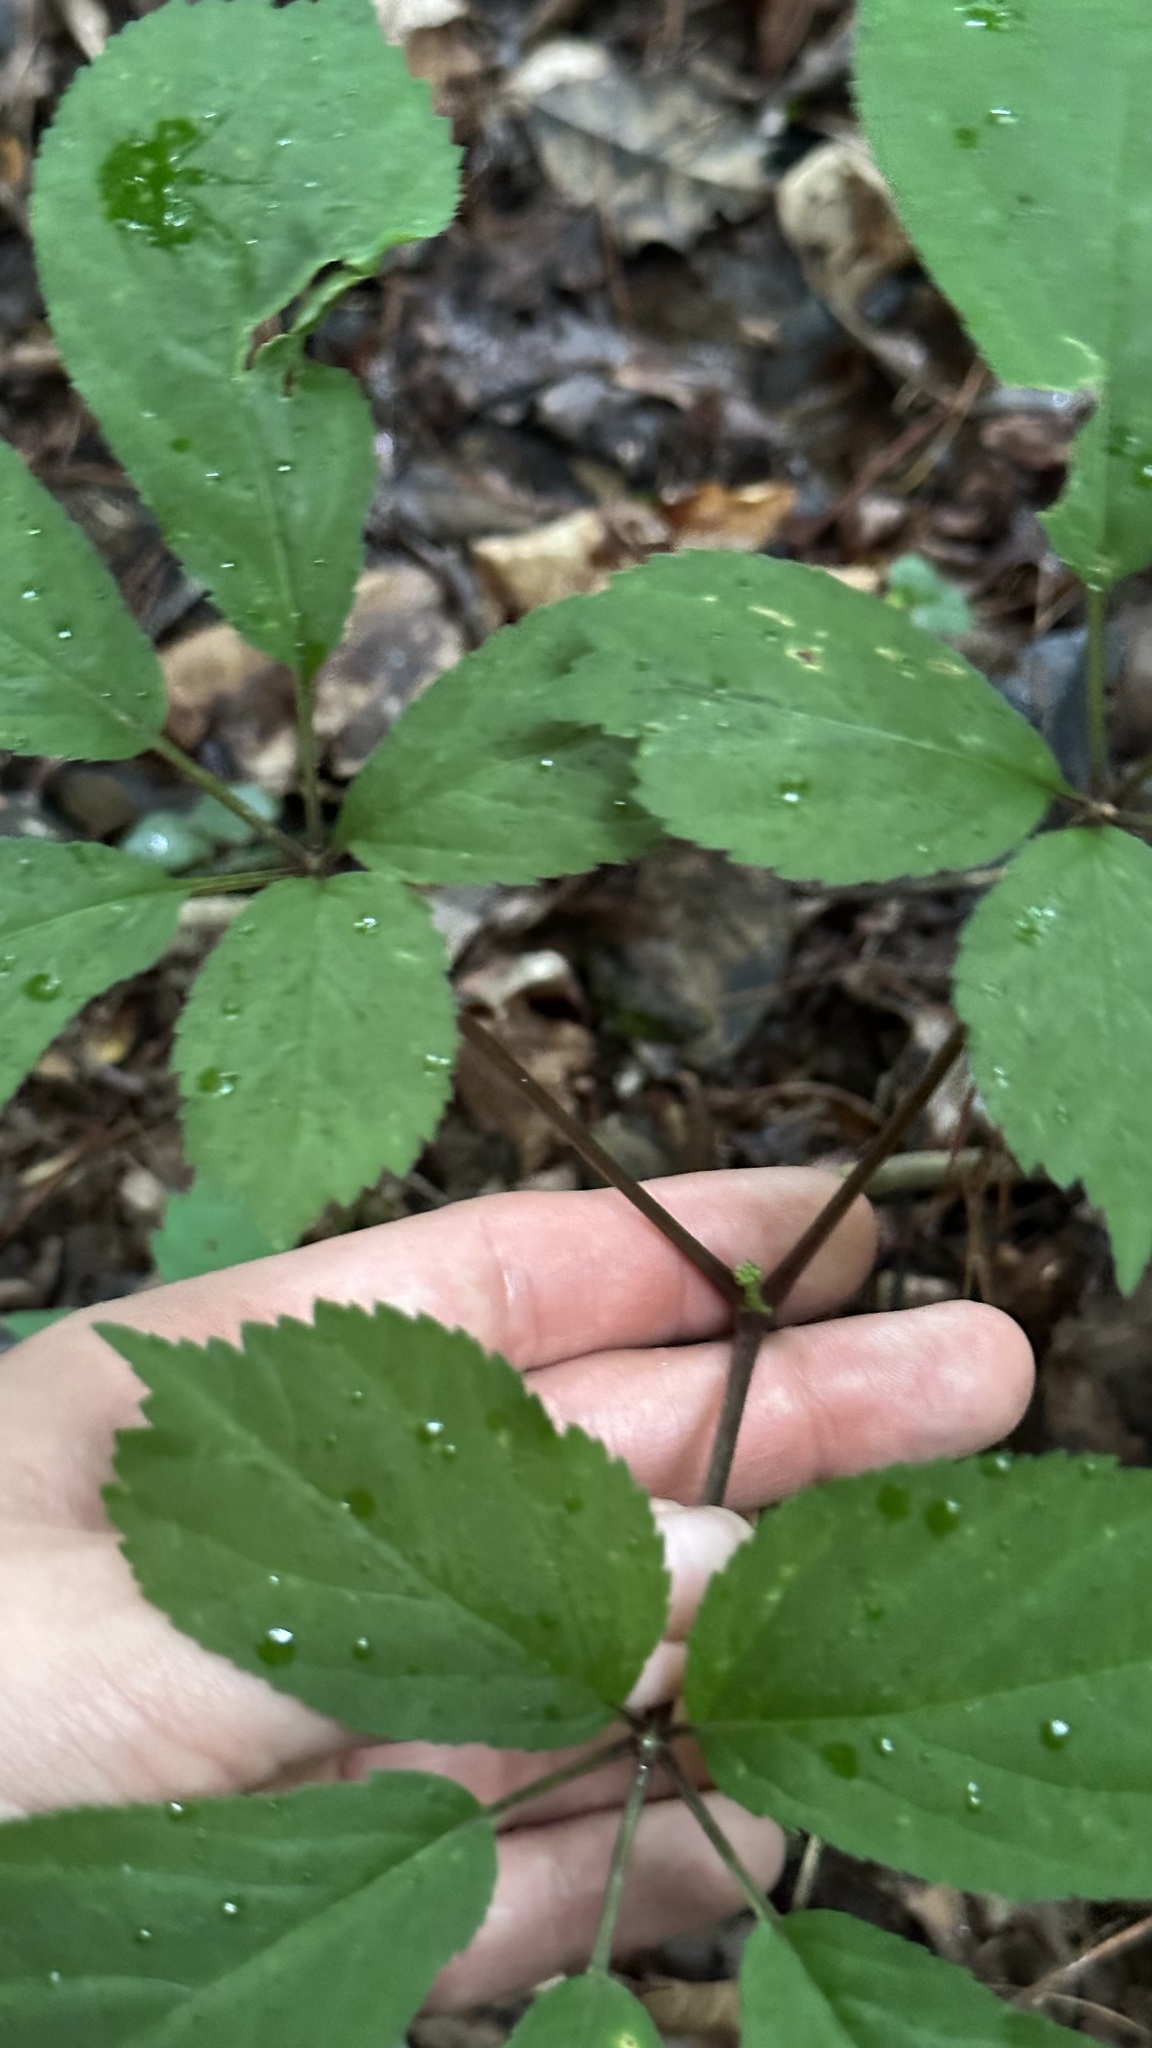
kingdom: Plantae
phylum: Tracheophyta
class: Magnoliopsida
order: Apiales
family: Araliaceae
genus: Panax
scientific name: Panax quinquefolius
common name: American ginseng
